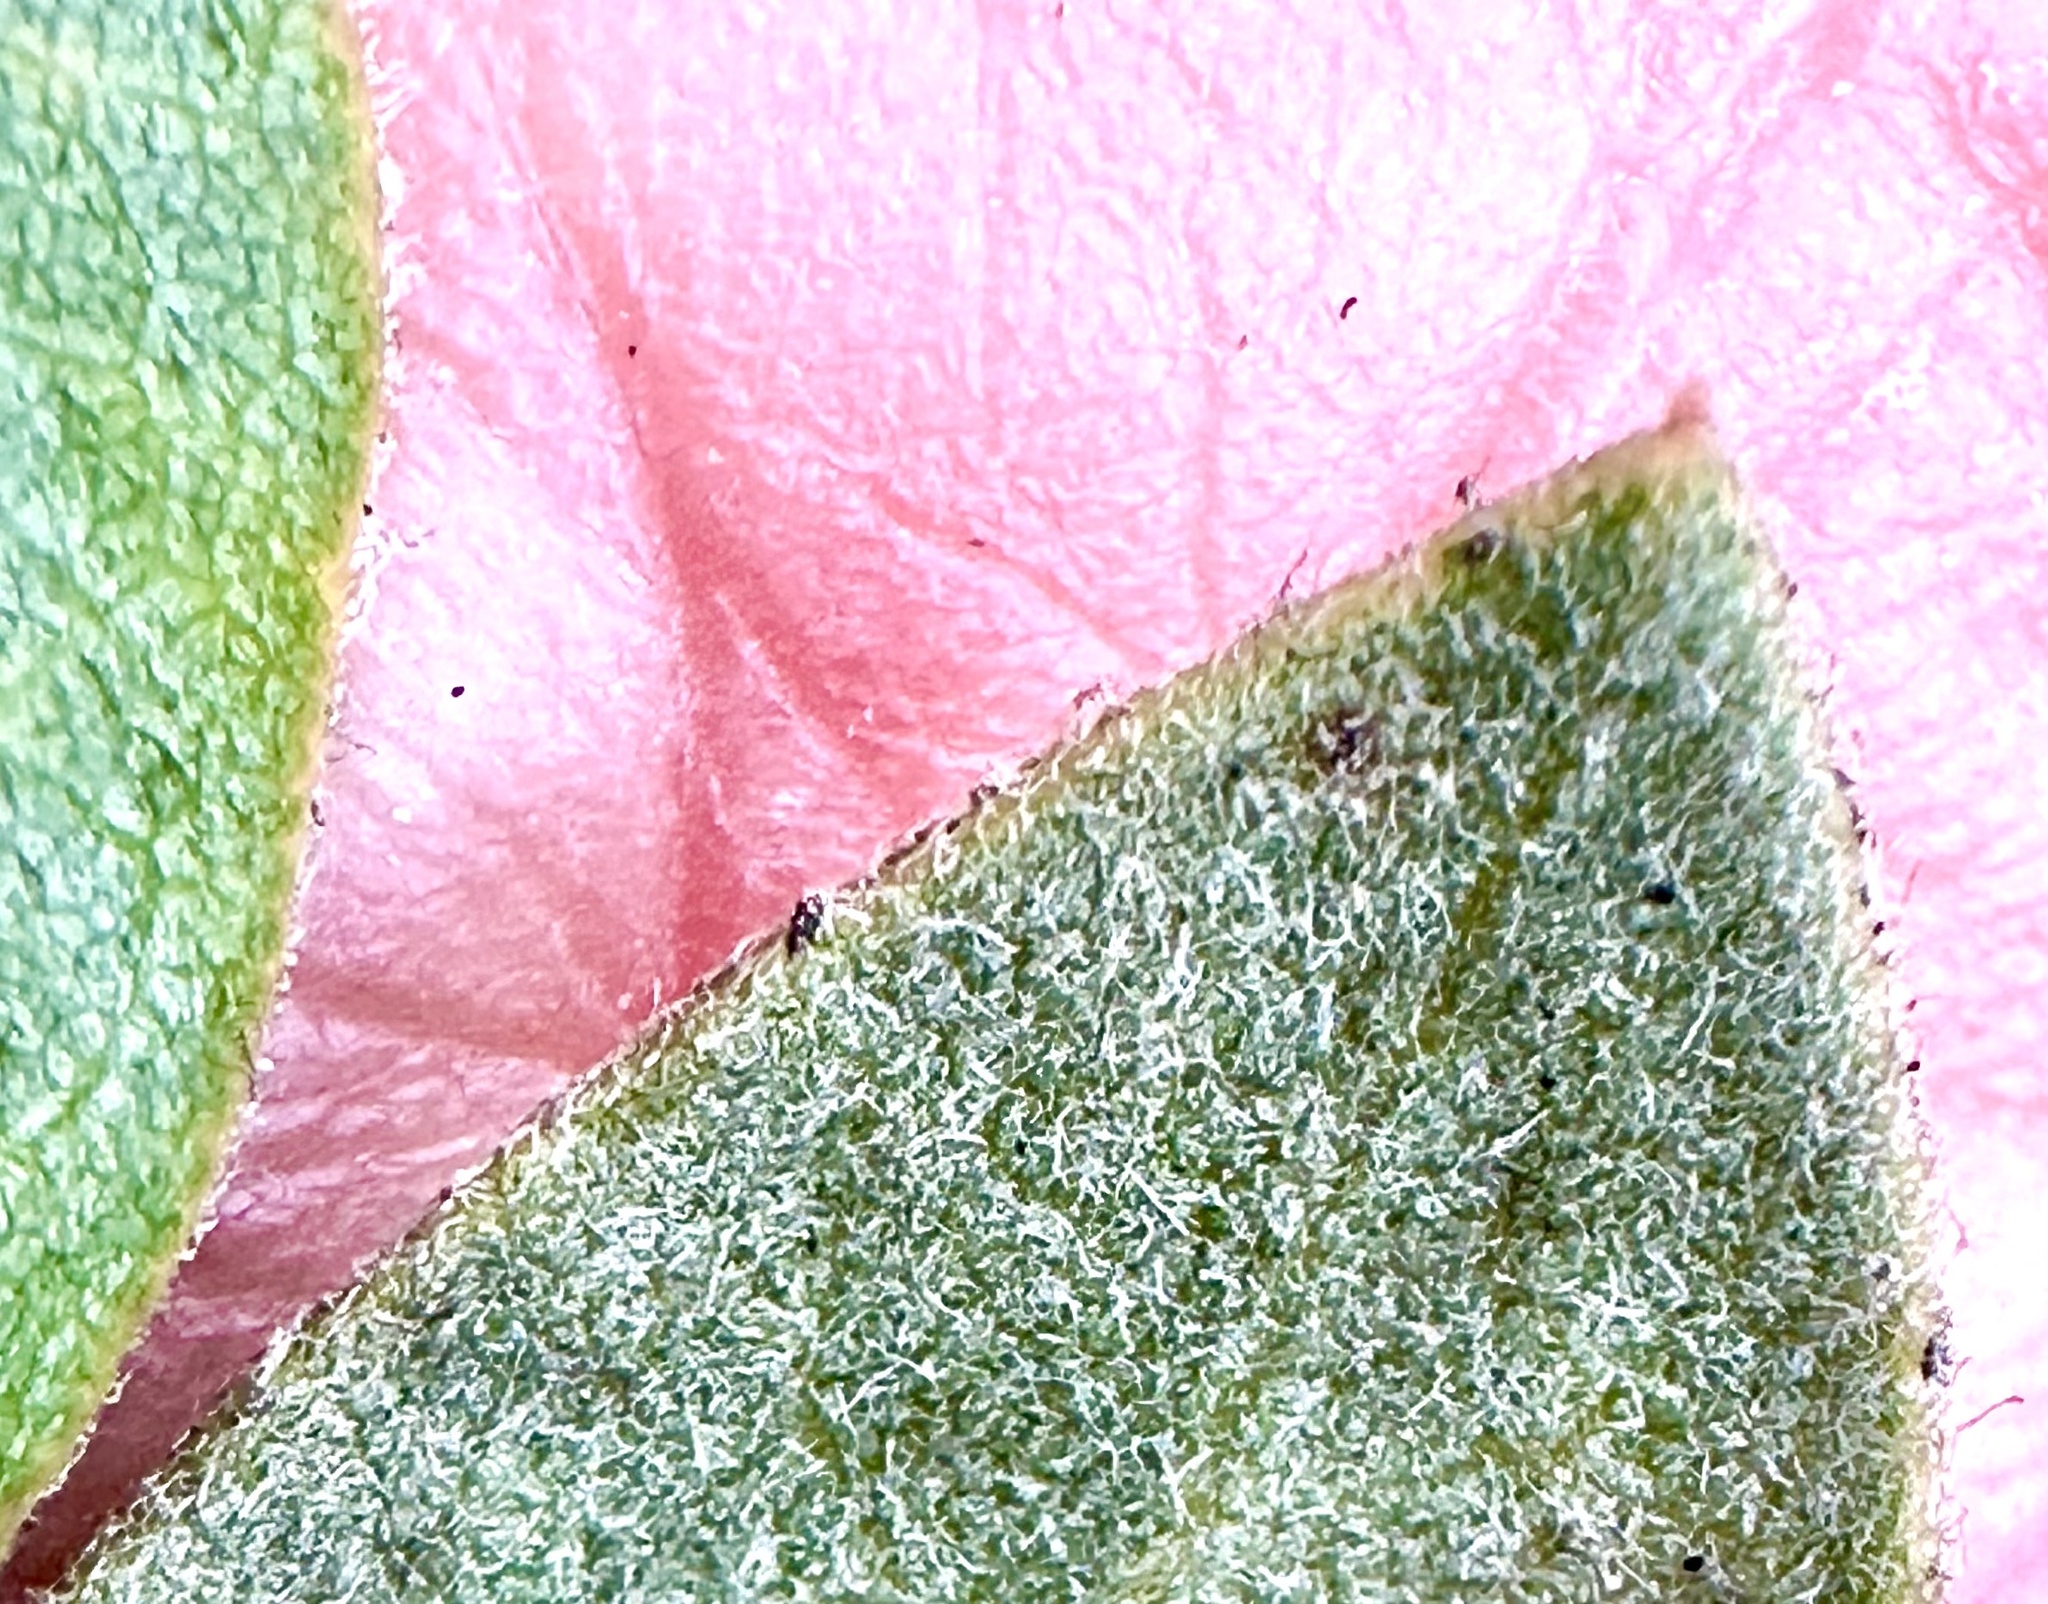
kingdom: Plantae
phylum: Tracheophyta
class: Magnoliopsida
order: Ericales
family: Ericaceae
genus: Arctostaphylos
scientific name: Arctostaphylos tomentosa
